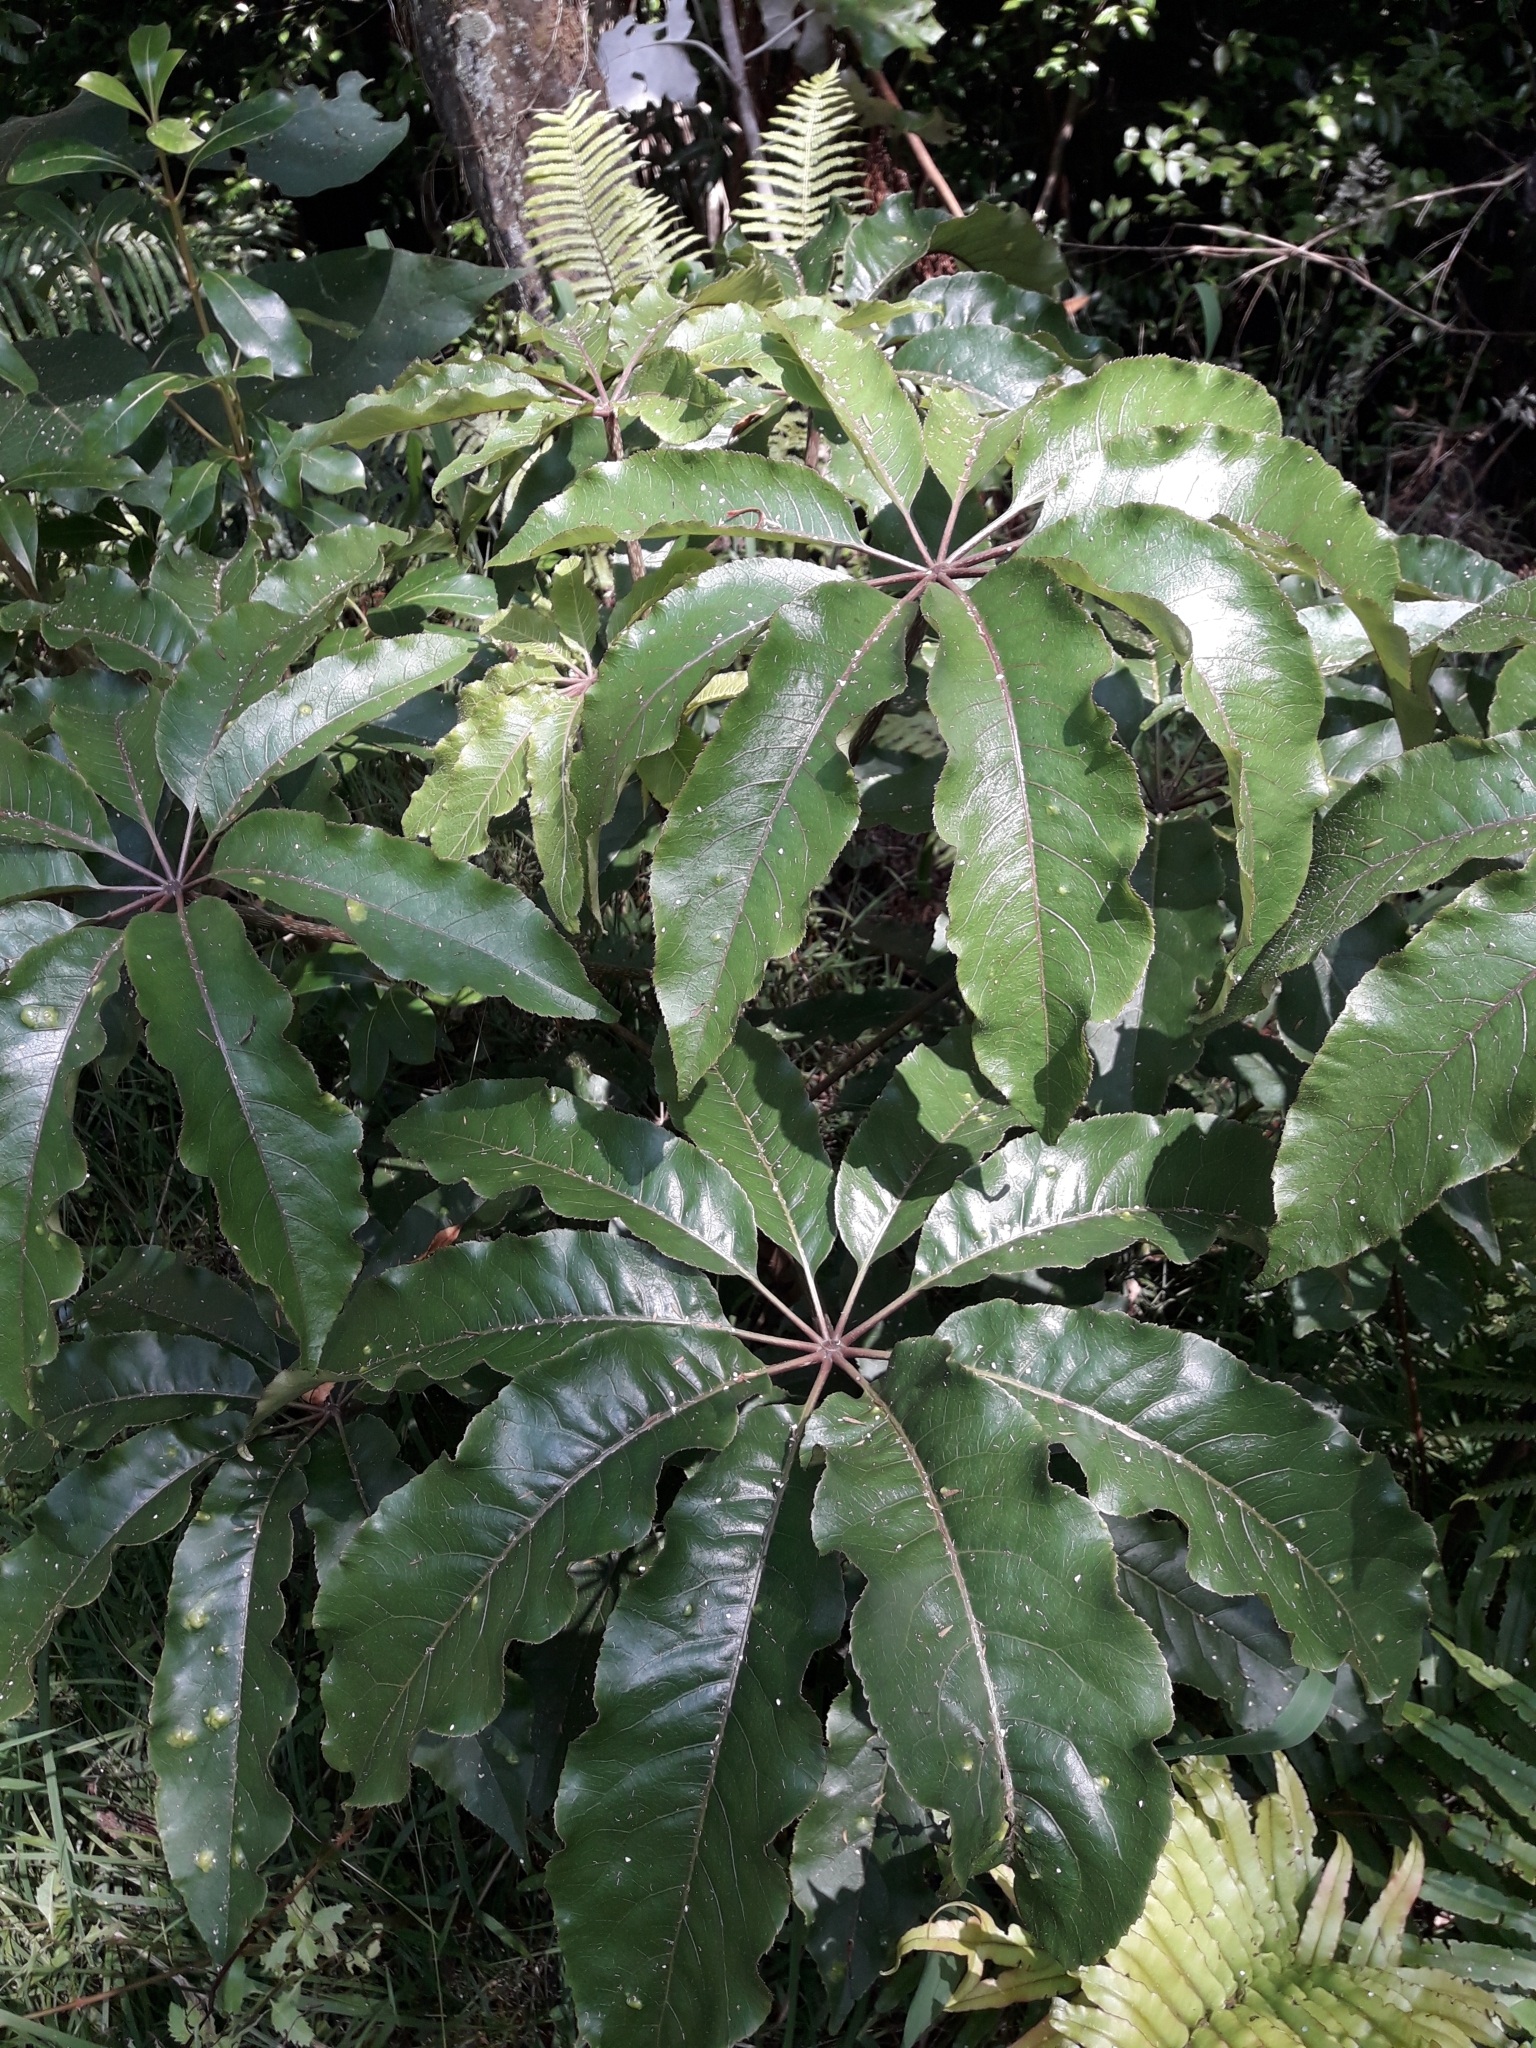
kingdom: Plantae
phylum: Tracheophyta
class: Magnoliopsida
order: Apiales
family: Araliaceae
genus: Schefflera
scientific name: Schefflera digitata
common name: Pate
